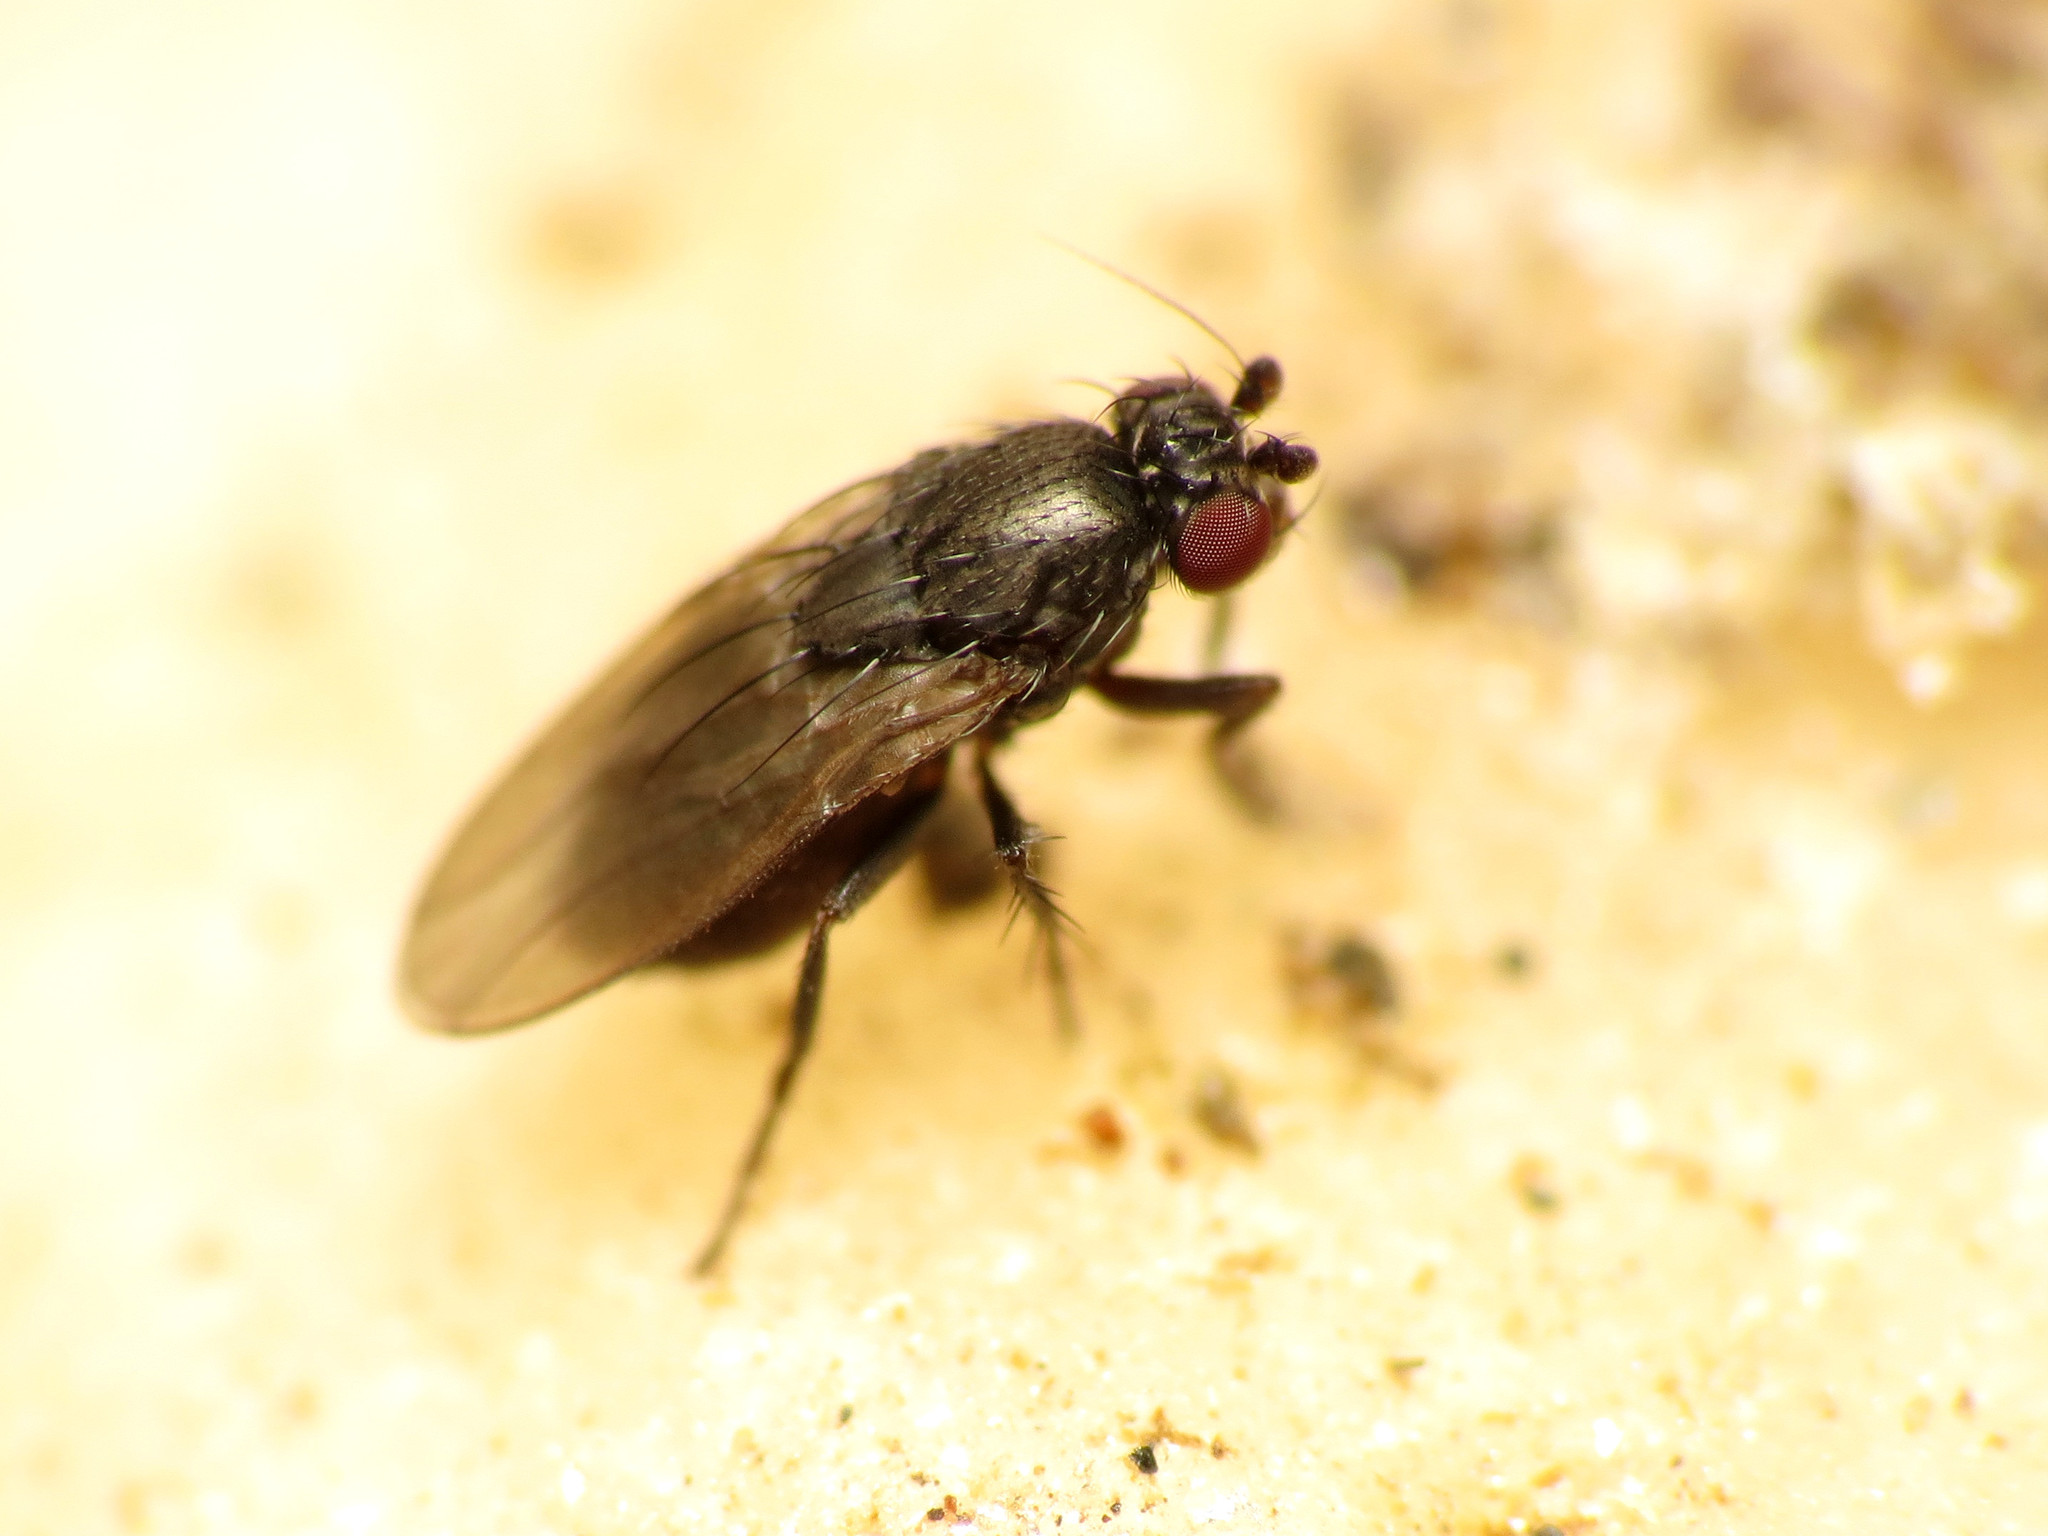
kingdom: Animalia
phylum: Arthropoda
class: Insecta
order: Diptera
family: Sphaeroceridae
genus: Leptocera
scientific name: Leptocera
